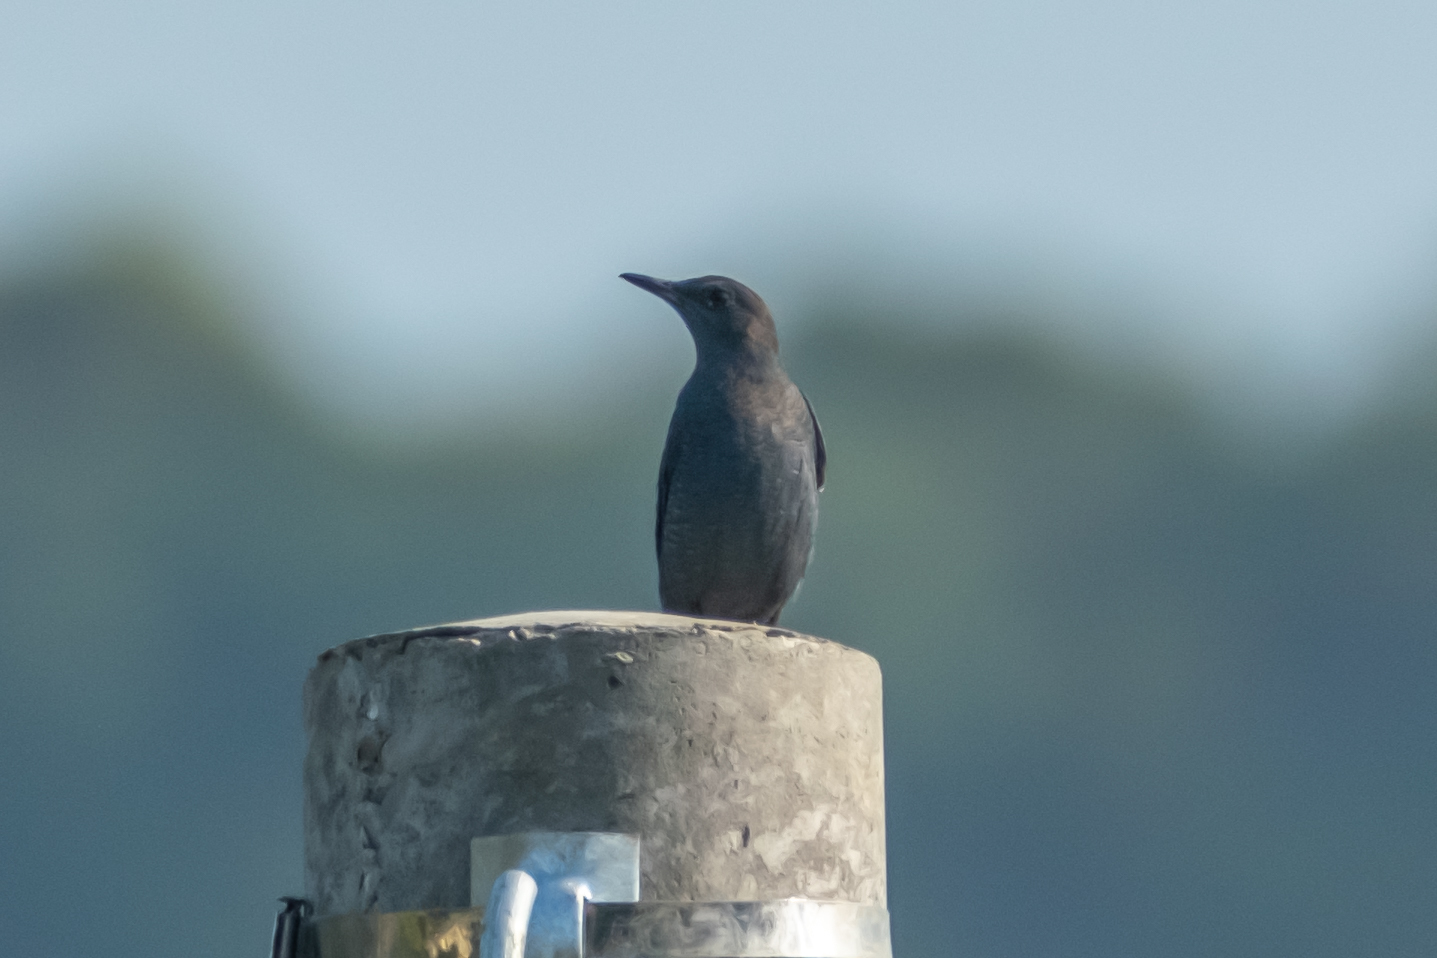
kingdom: Animalia
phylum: Chordata
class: Aves
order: Passeriformes
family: Muscicapidae
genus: Monticola
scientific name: Monticola solitarius
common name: Blue rock thrush
